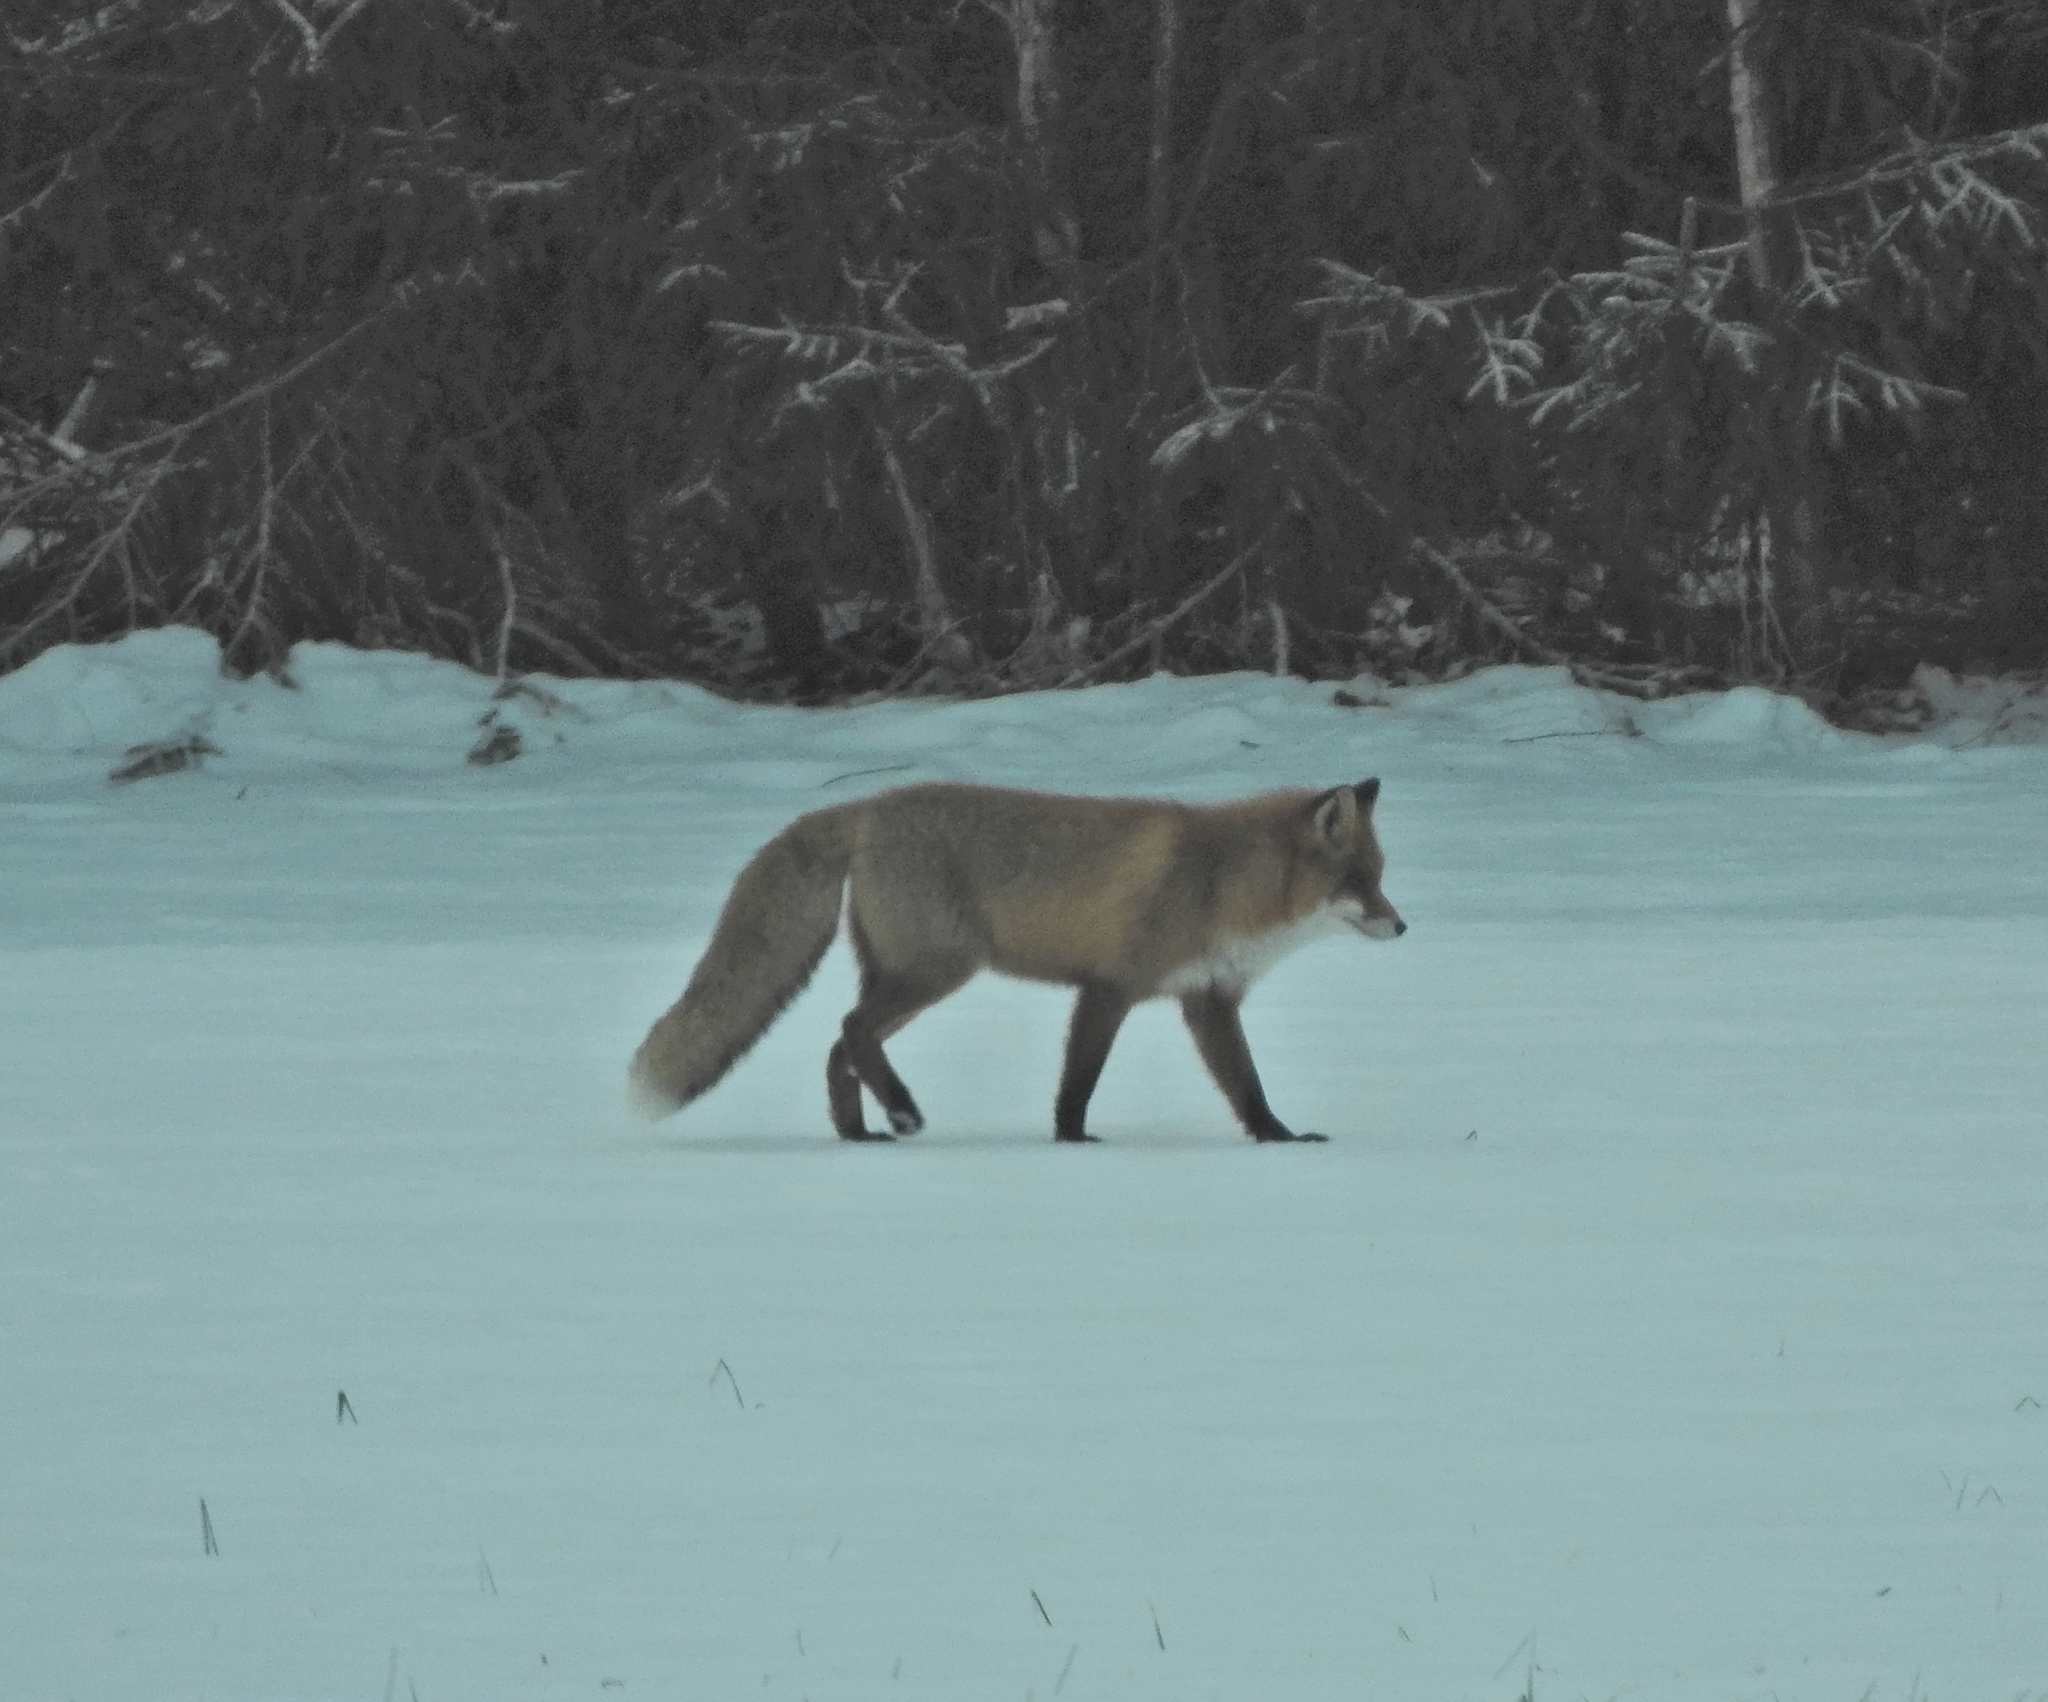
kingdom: Animalia
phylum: Chordata
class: Mammalia
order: Carnivora
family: Canidae
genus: Vulpes
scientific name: Vulpes vulpes
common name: Red fox
